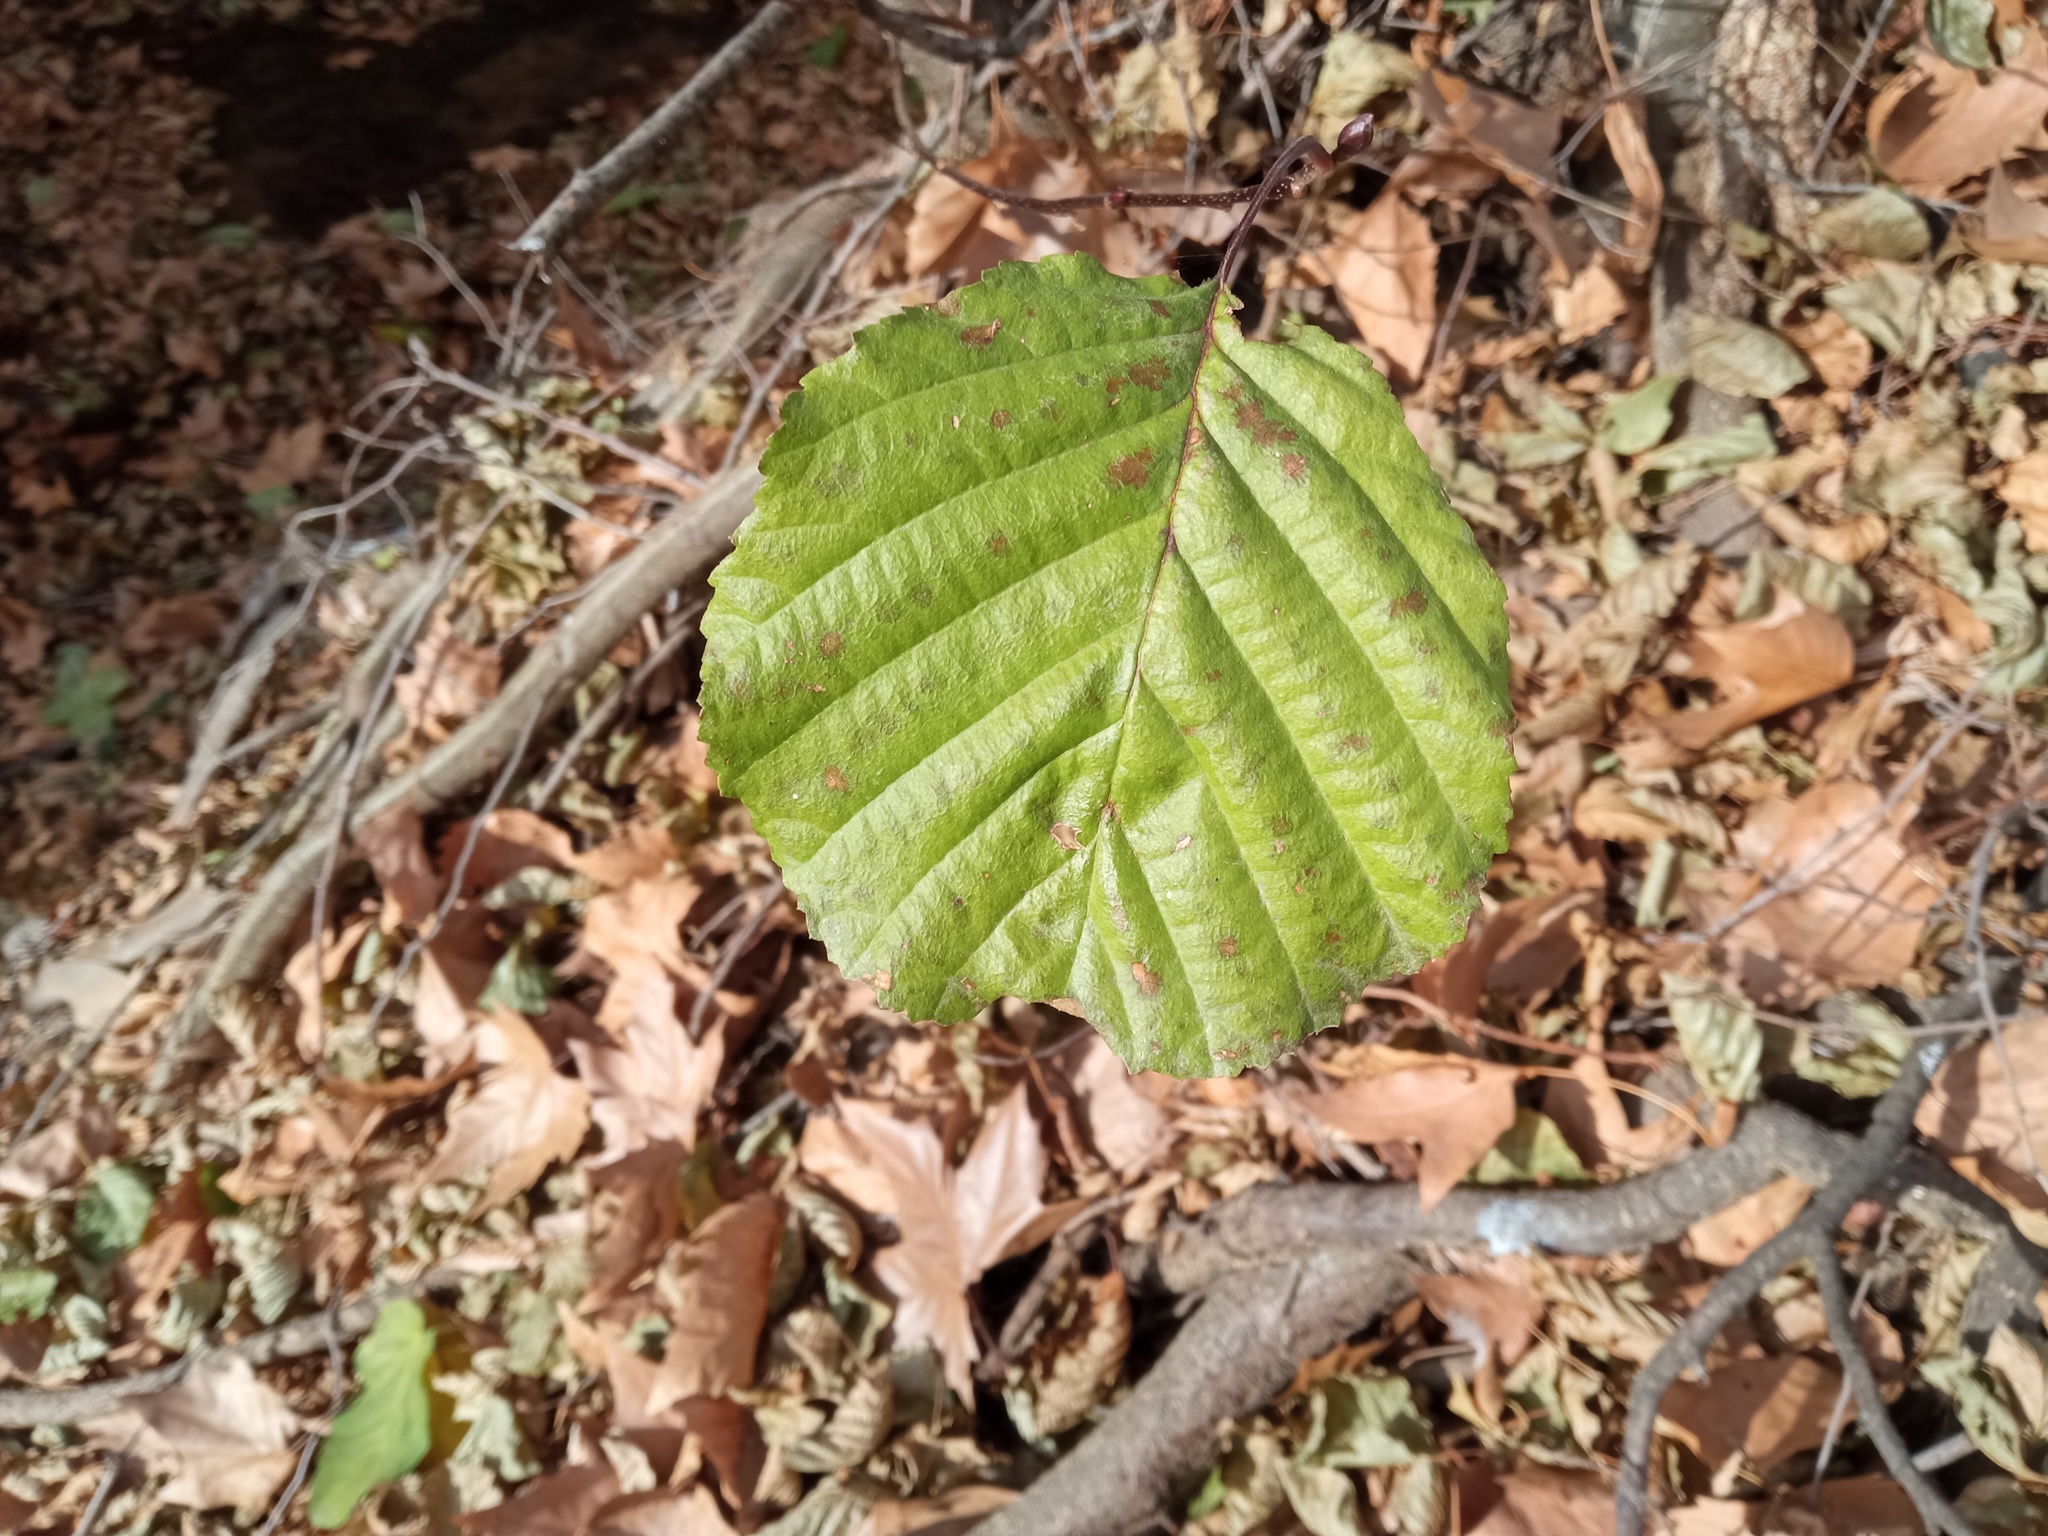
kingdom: Plantae
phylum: Tracheophyta
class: Magnoliopsida
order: Fagales
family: Betulaceae
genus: Alnus
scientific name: Alnus glutinosa
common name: Black alder
